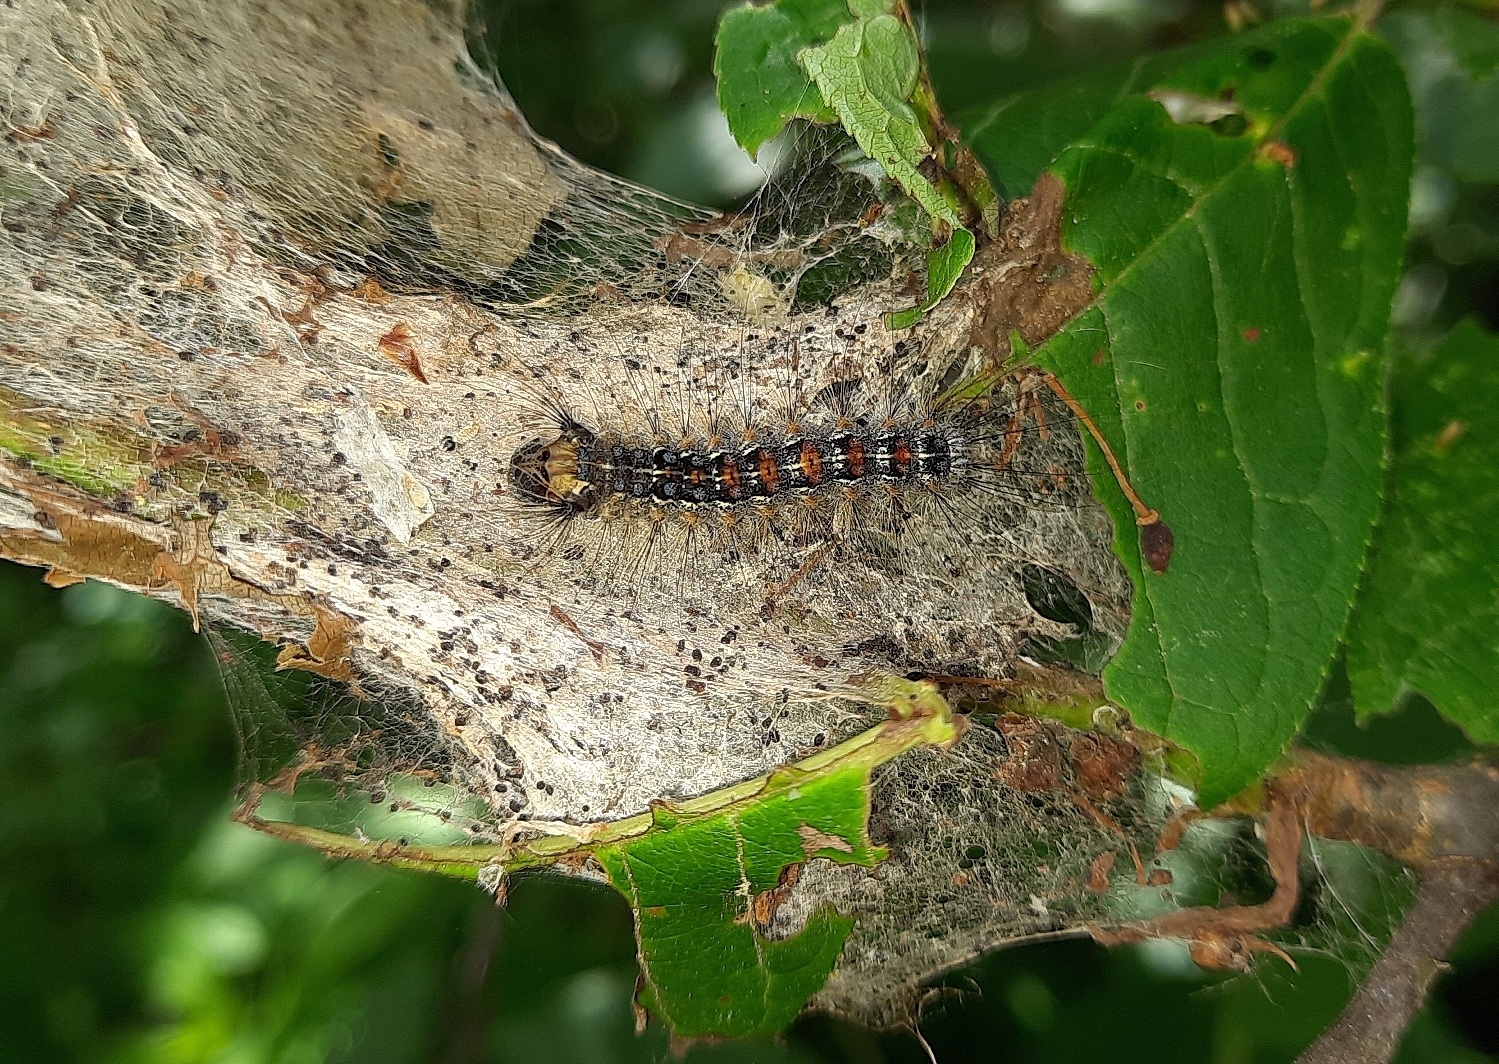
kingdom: Animalia
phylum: Arthropoda
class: Insecta
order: Lepidoptera
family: Erebidae
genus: Lymantria
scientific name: Lymantria dispar
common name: Gypsy moth
